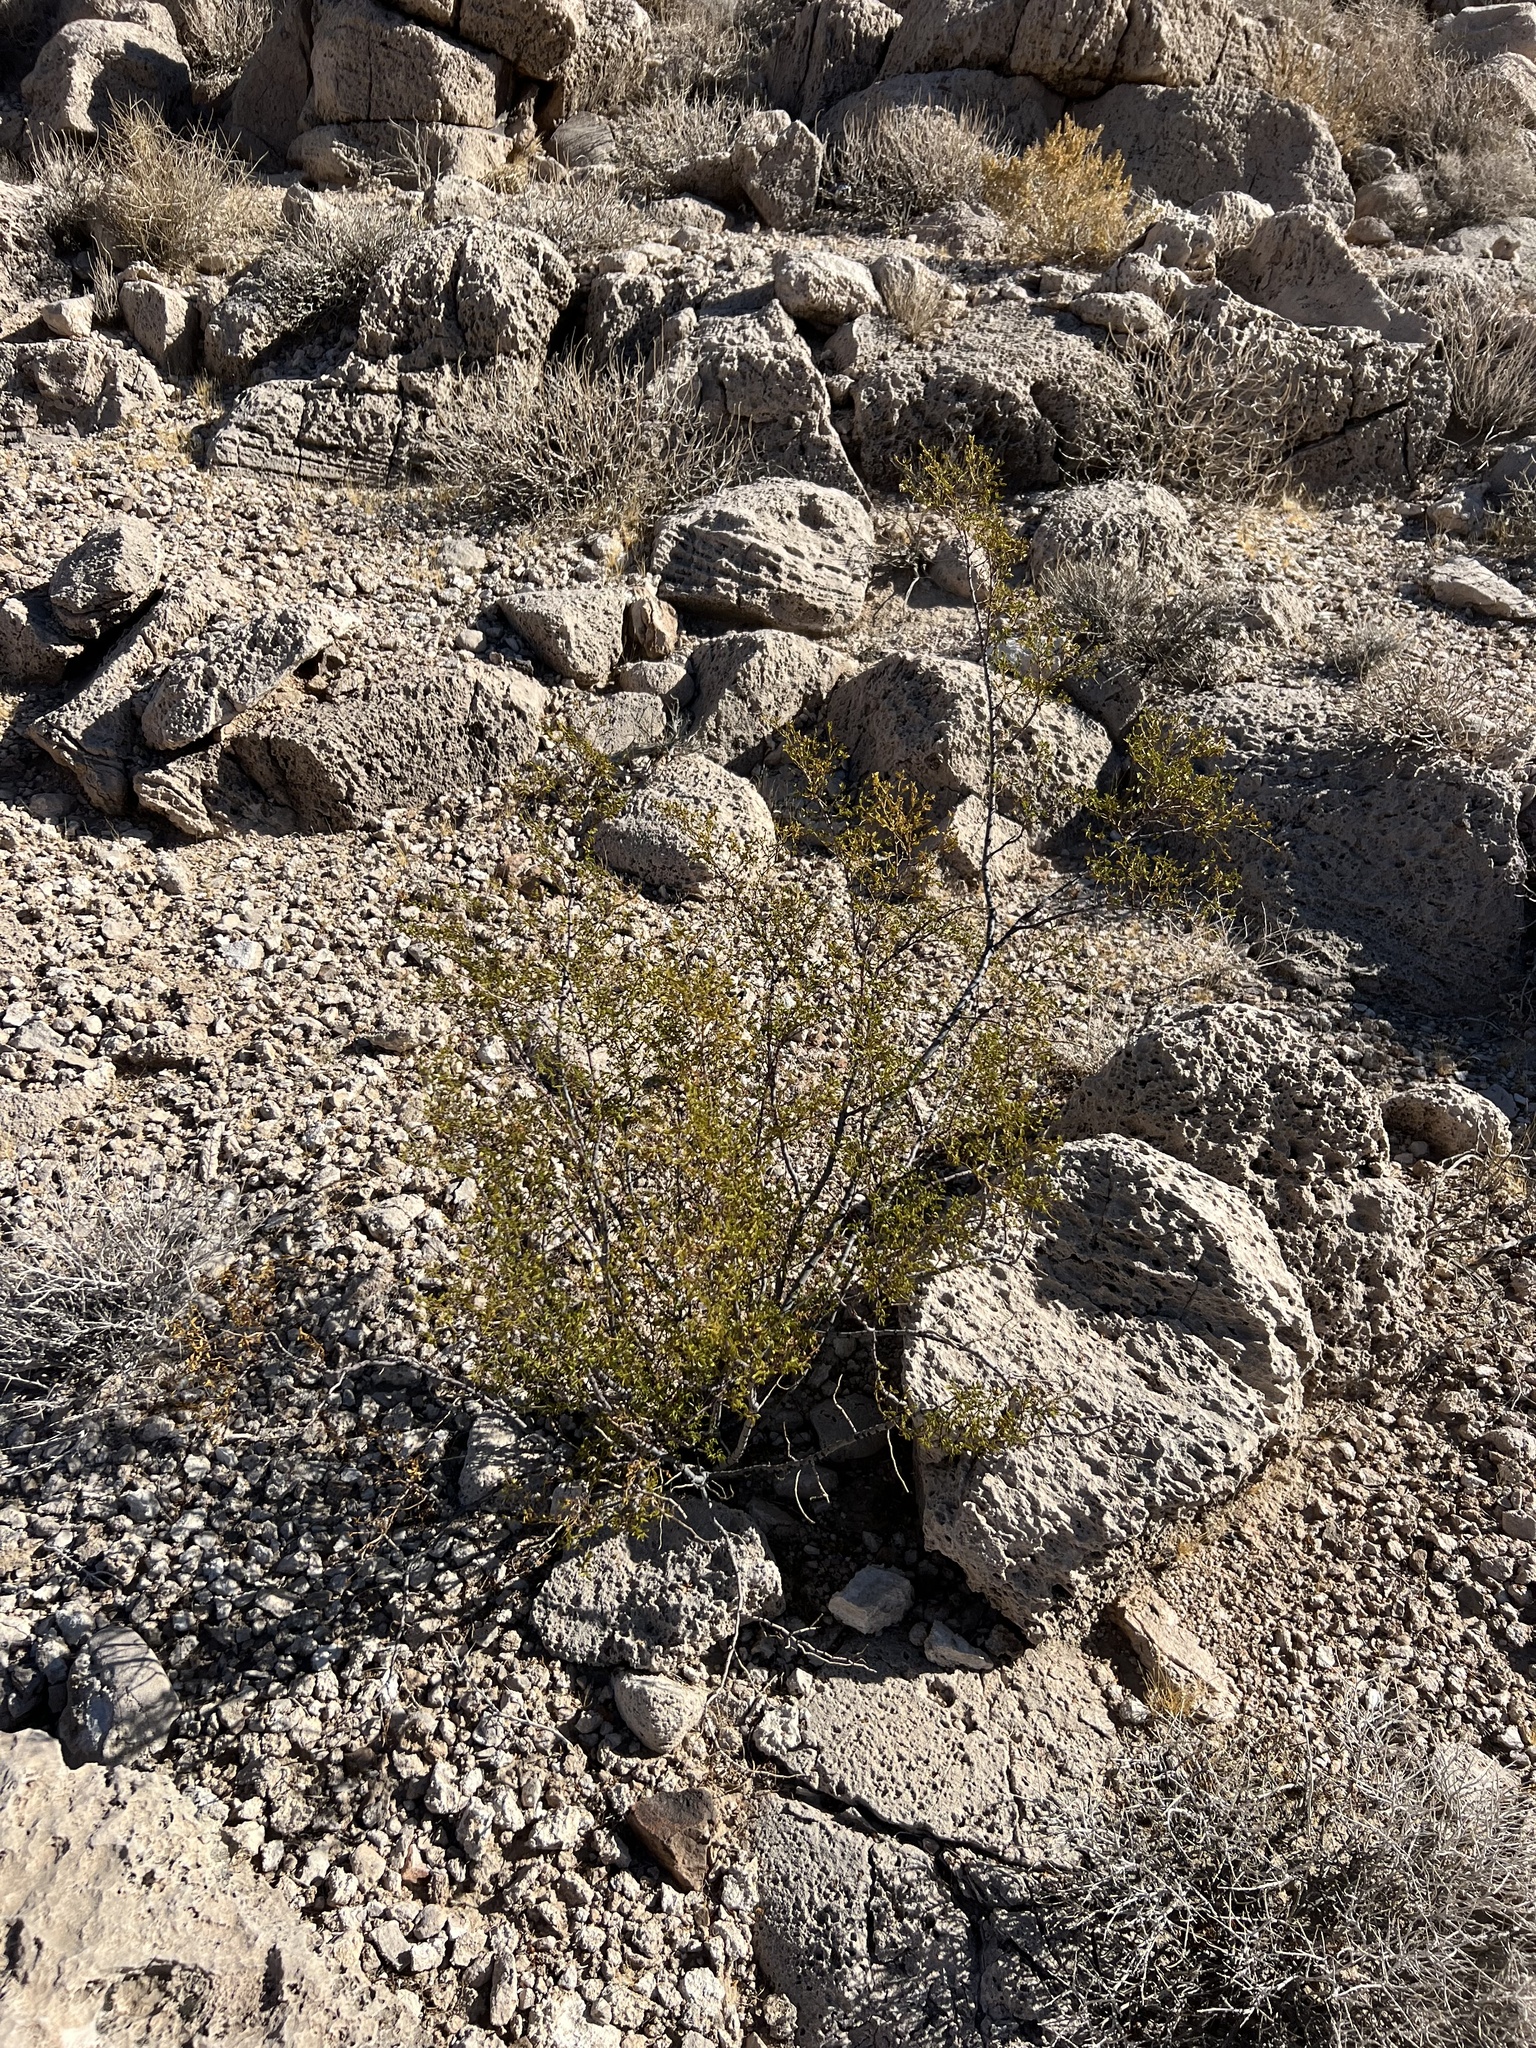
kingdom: Plantae
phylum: Tracheophyta
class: Magnoliopsida
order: Zygophyllales
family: Zygophyllaceae
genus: Larrea
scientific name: Larrea tridentata
